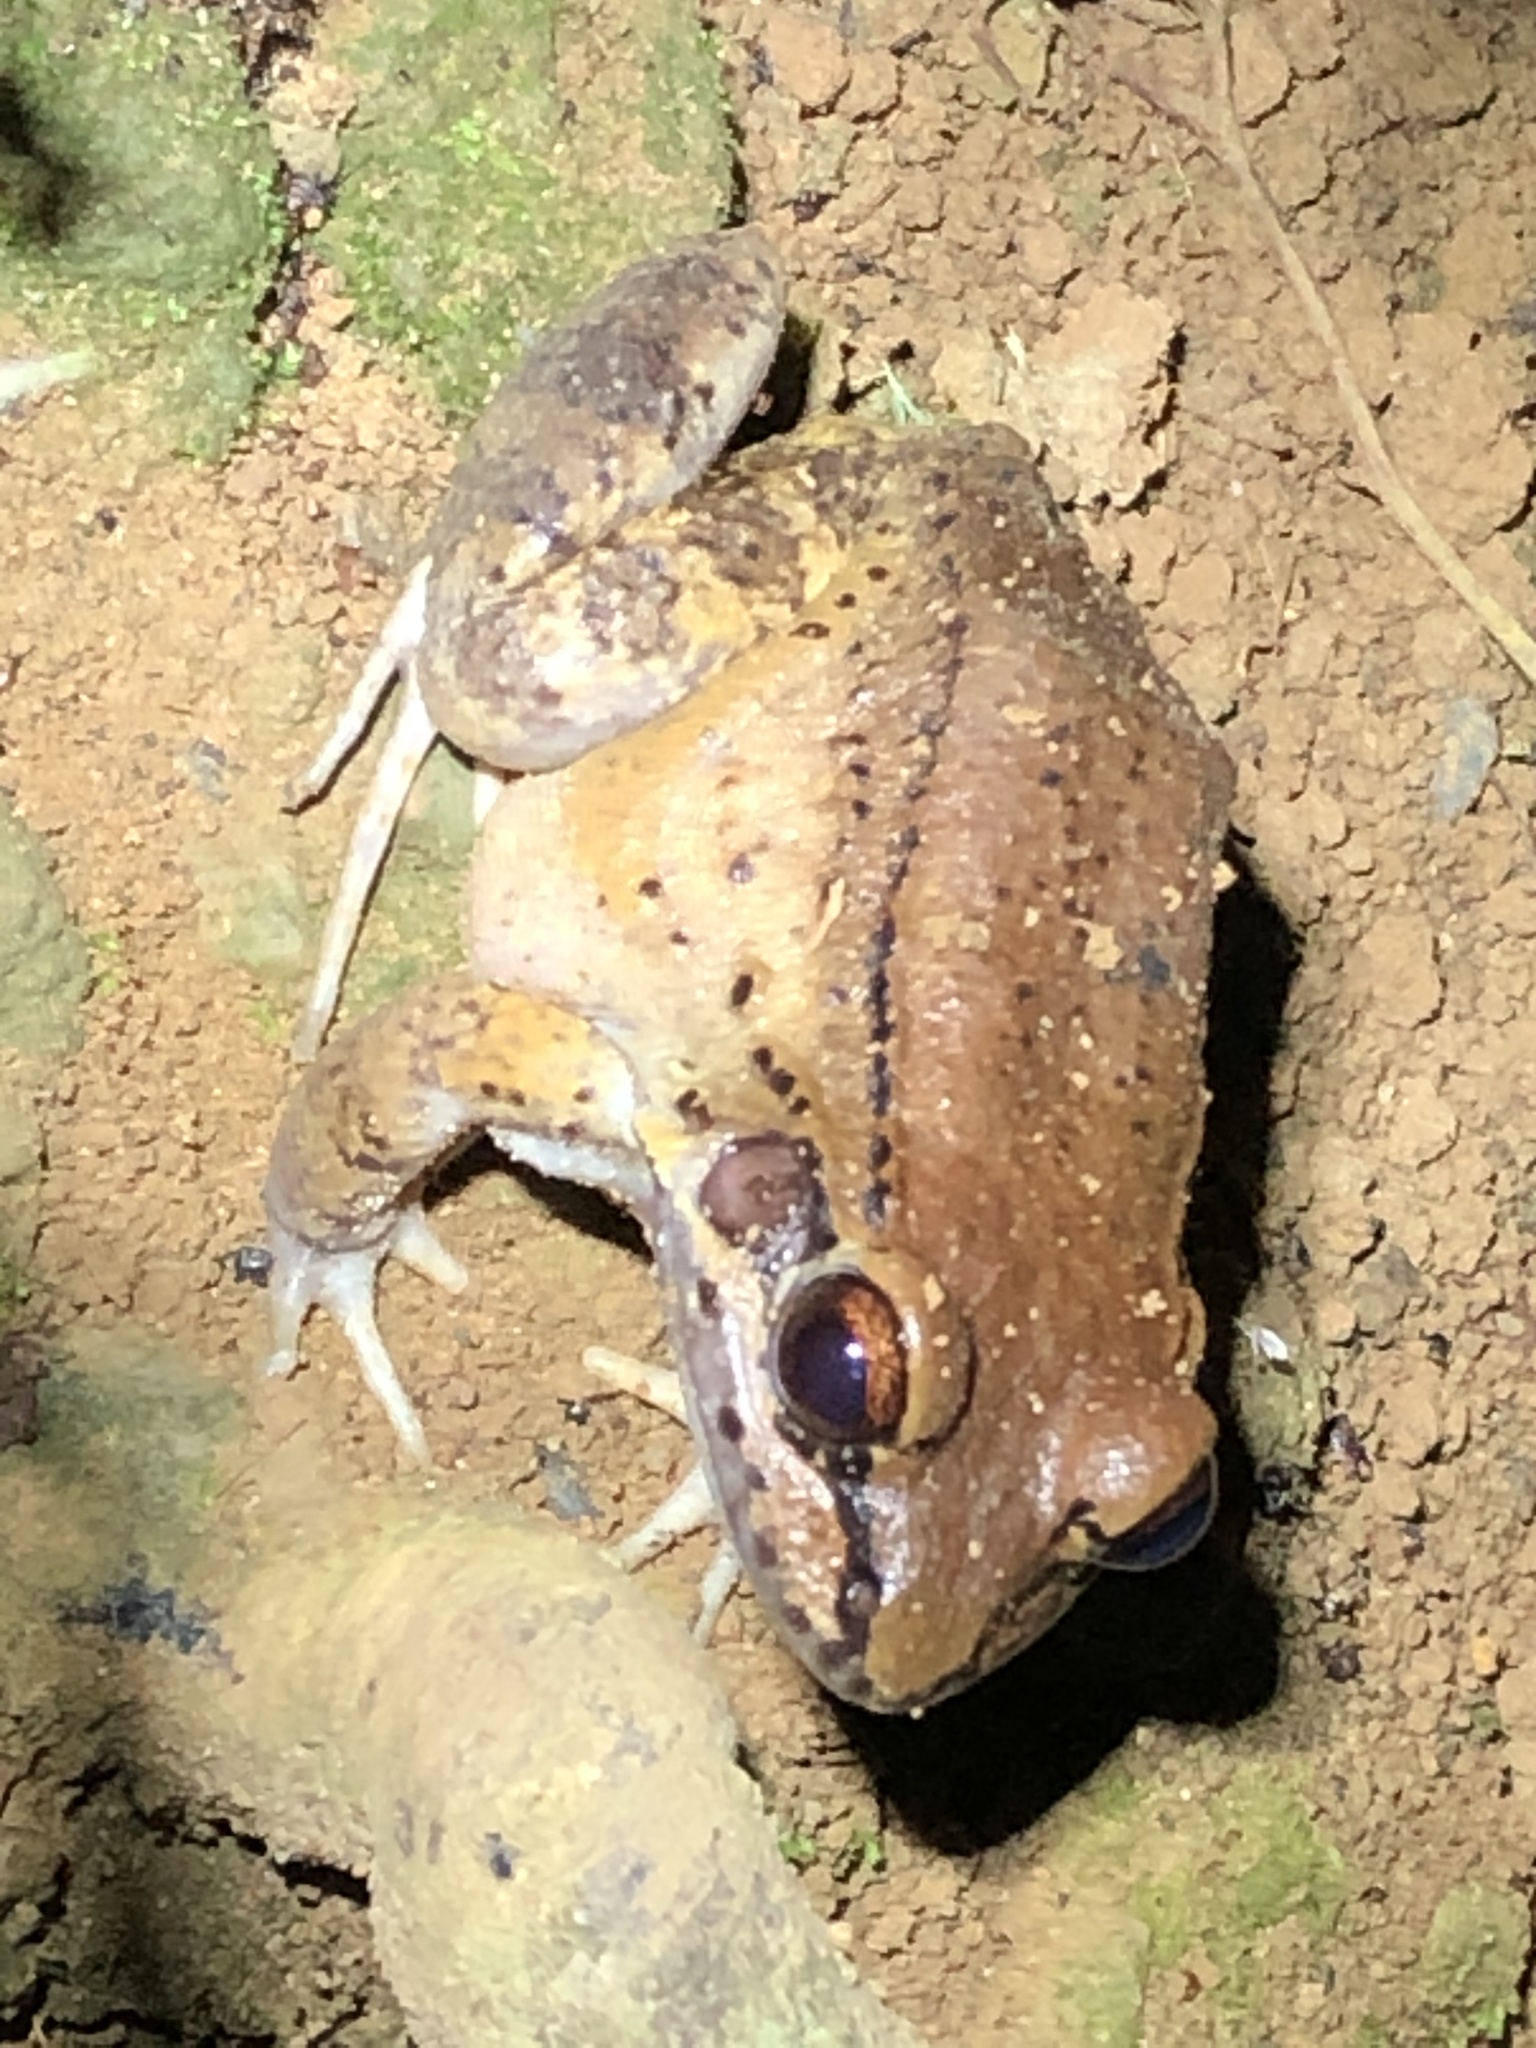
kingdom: Animalia
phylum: Chordata
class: Amphibia
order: Anura
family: Leptodactylidae
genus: Leptodactylus
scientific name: Leptodactylus rhodonotus
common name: Peru white-lipped frog
